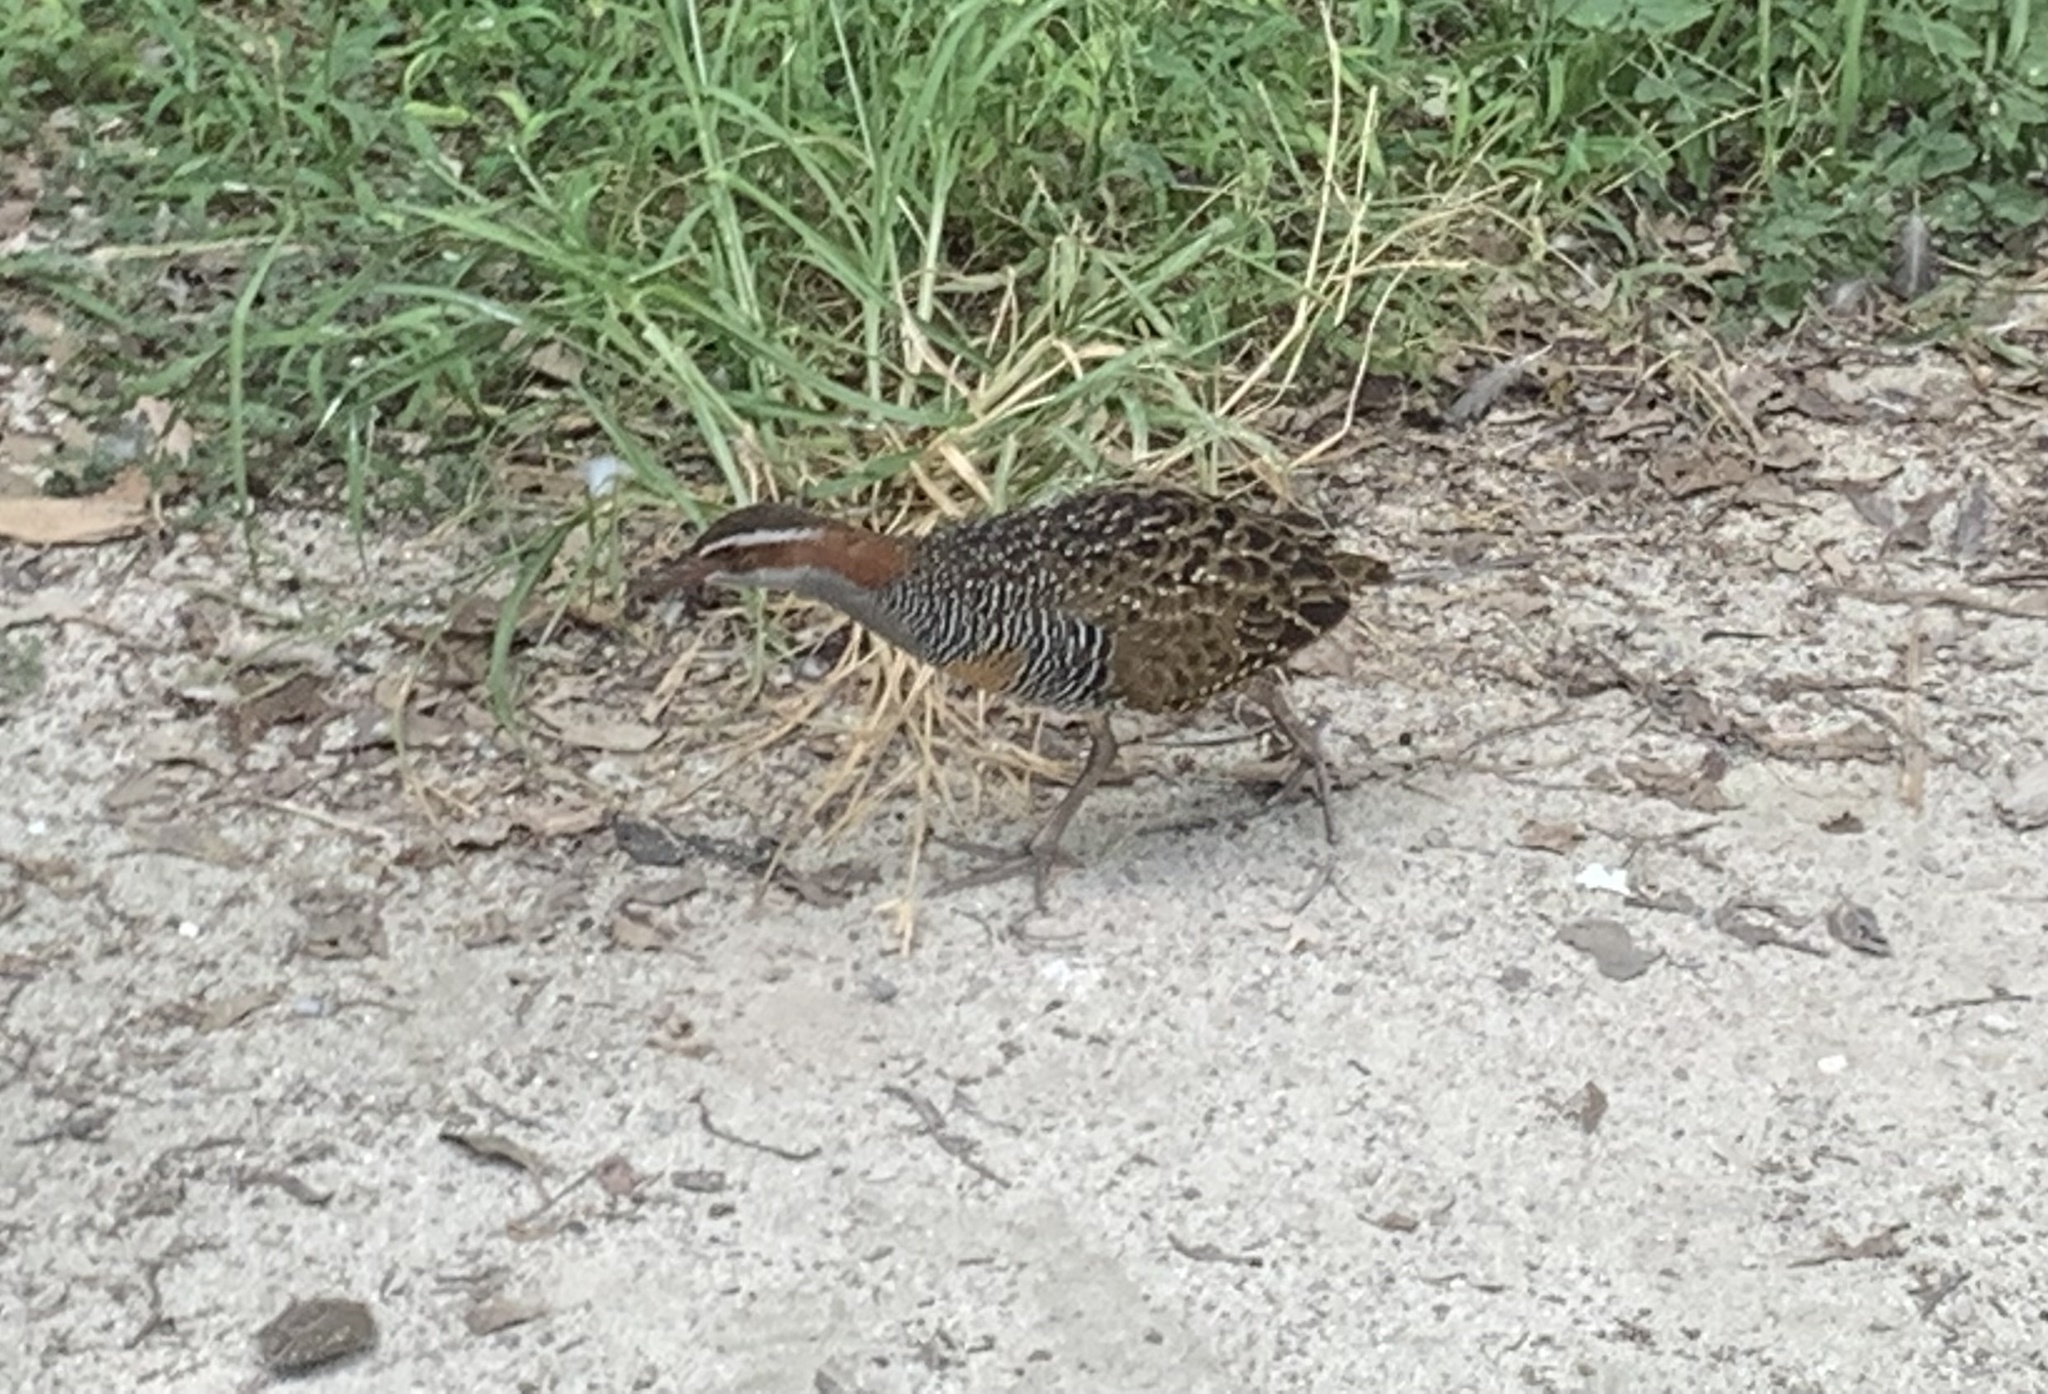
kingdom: Animalia
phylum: Chordata
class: Aves
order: Gruiformes
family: Rallidae
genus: Gallirallus
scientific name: Gallirallus philippensis
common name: Buff-banded rail
